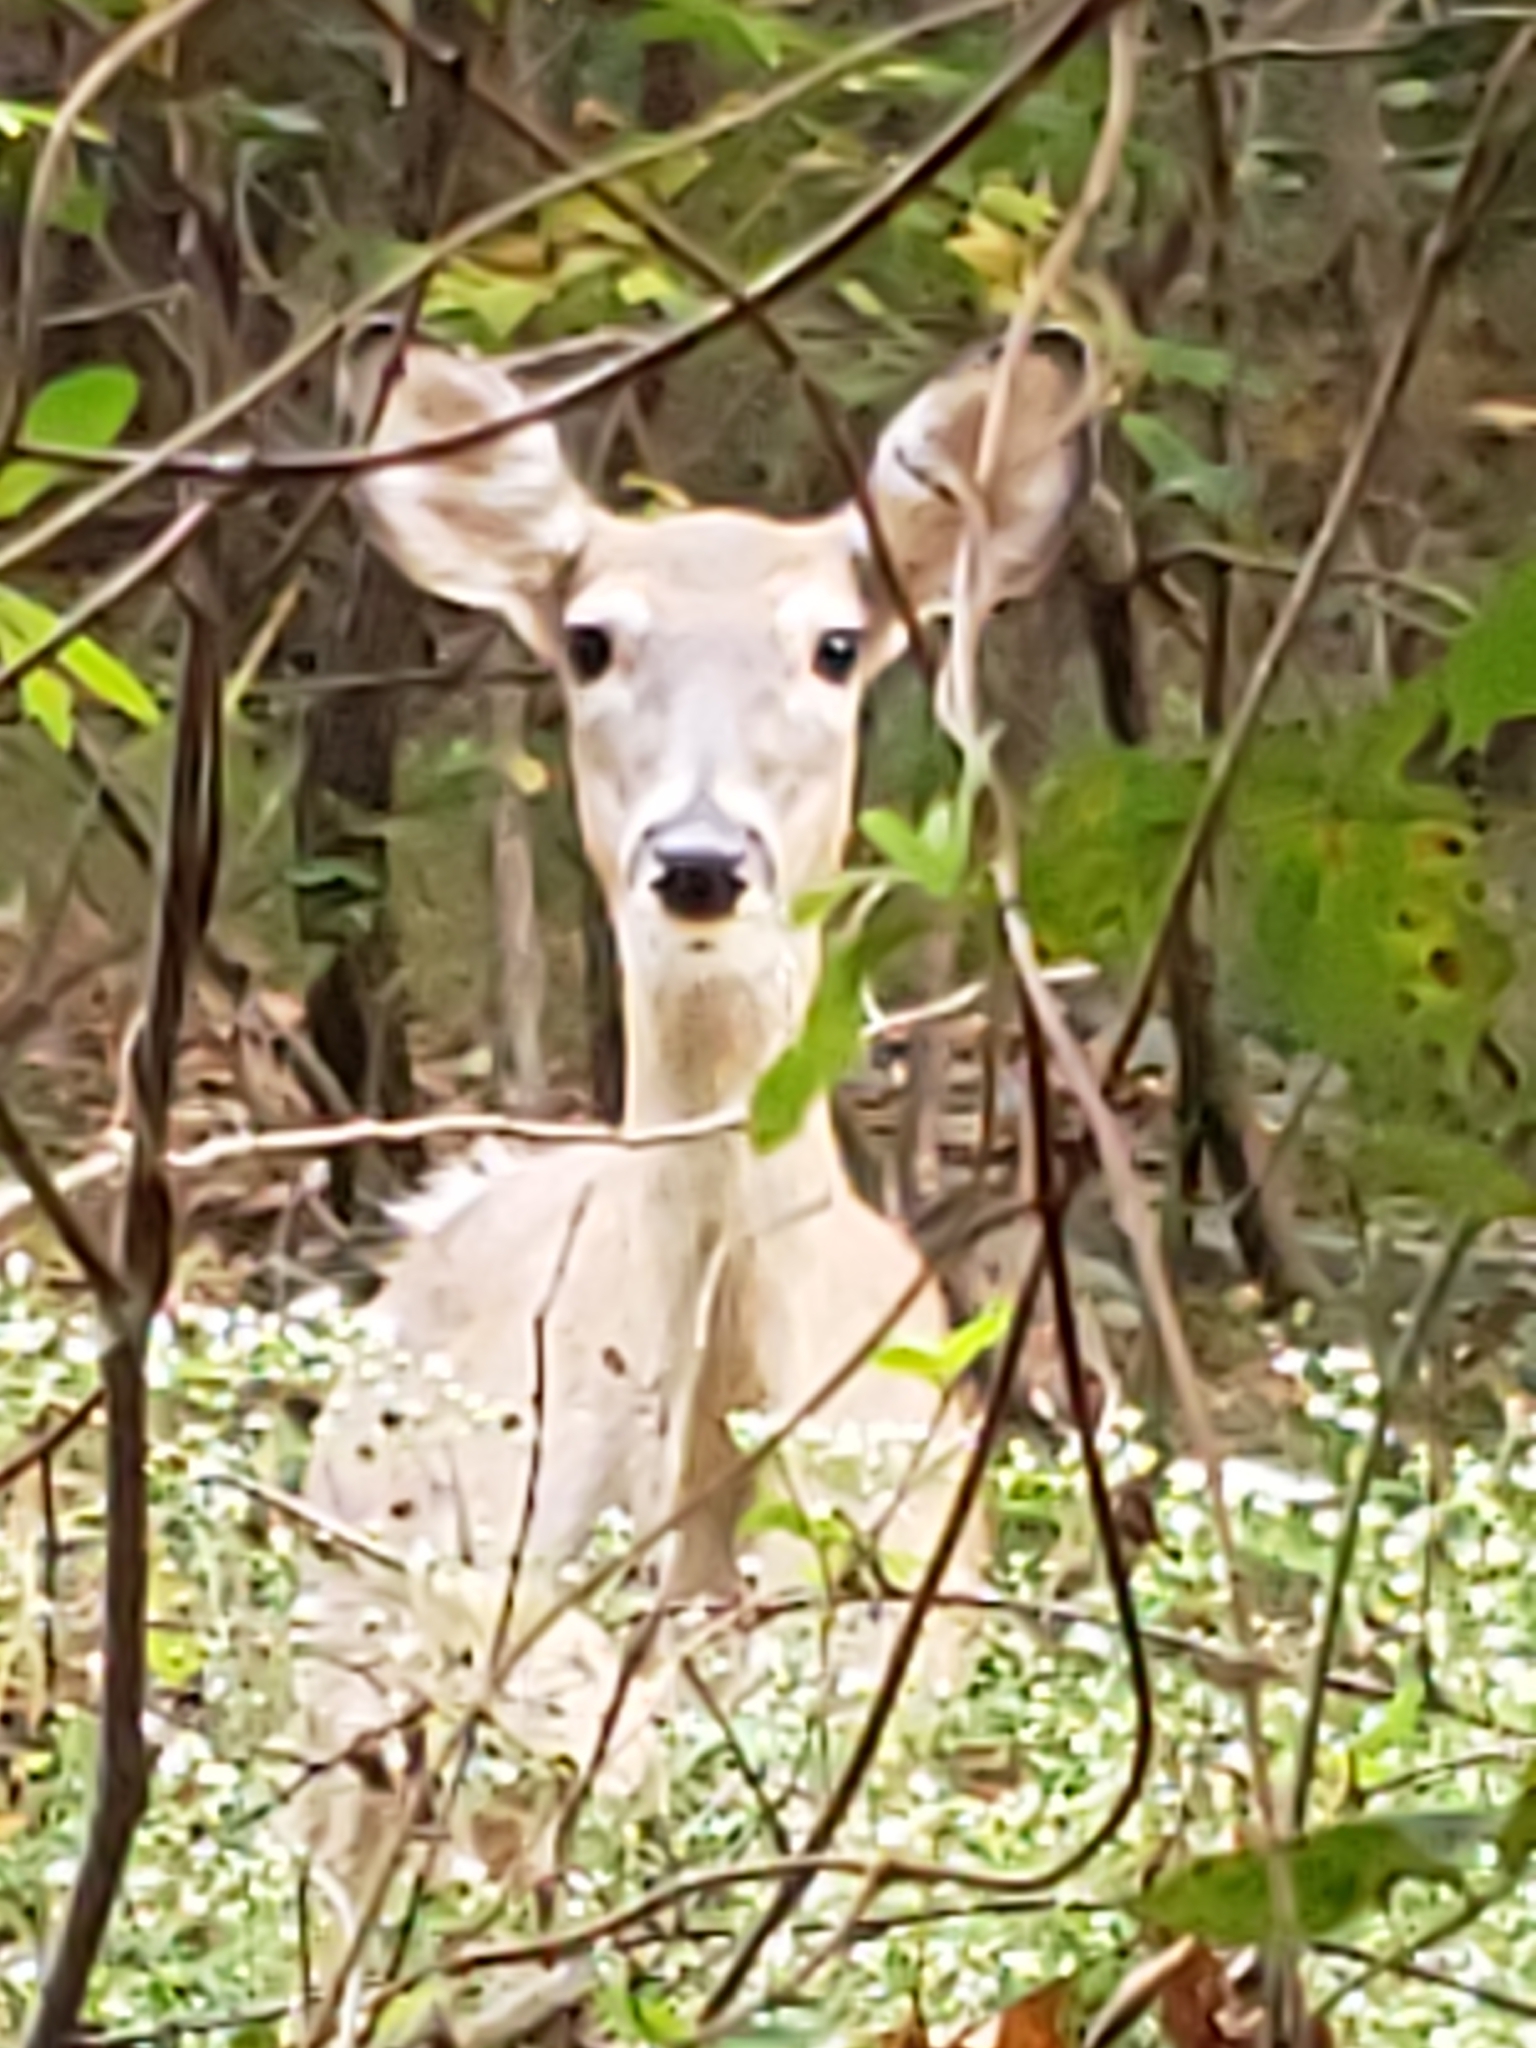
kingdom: Animalia
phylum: Chordata
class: Mammalia
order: Artiodactyla
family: Cervidae
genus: Odocoileus
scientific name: Odocoileus virginianus
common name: White-tailed deer
